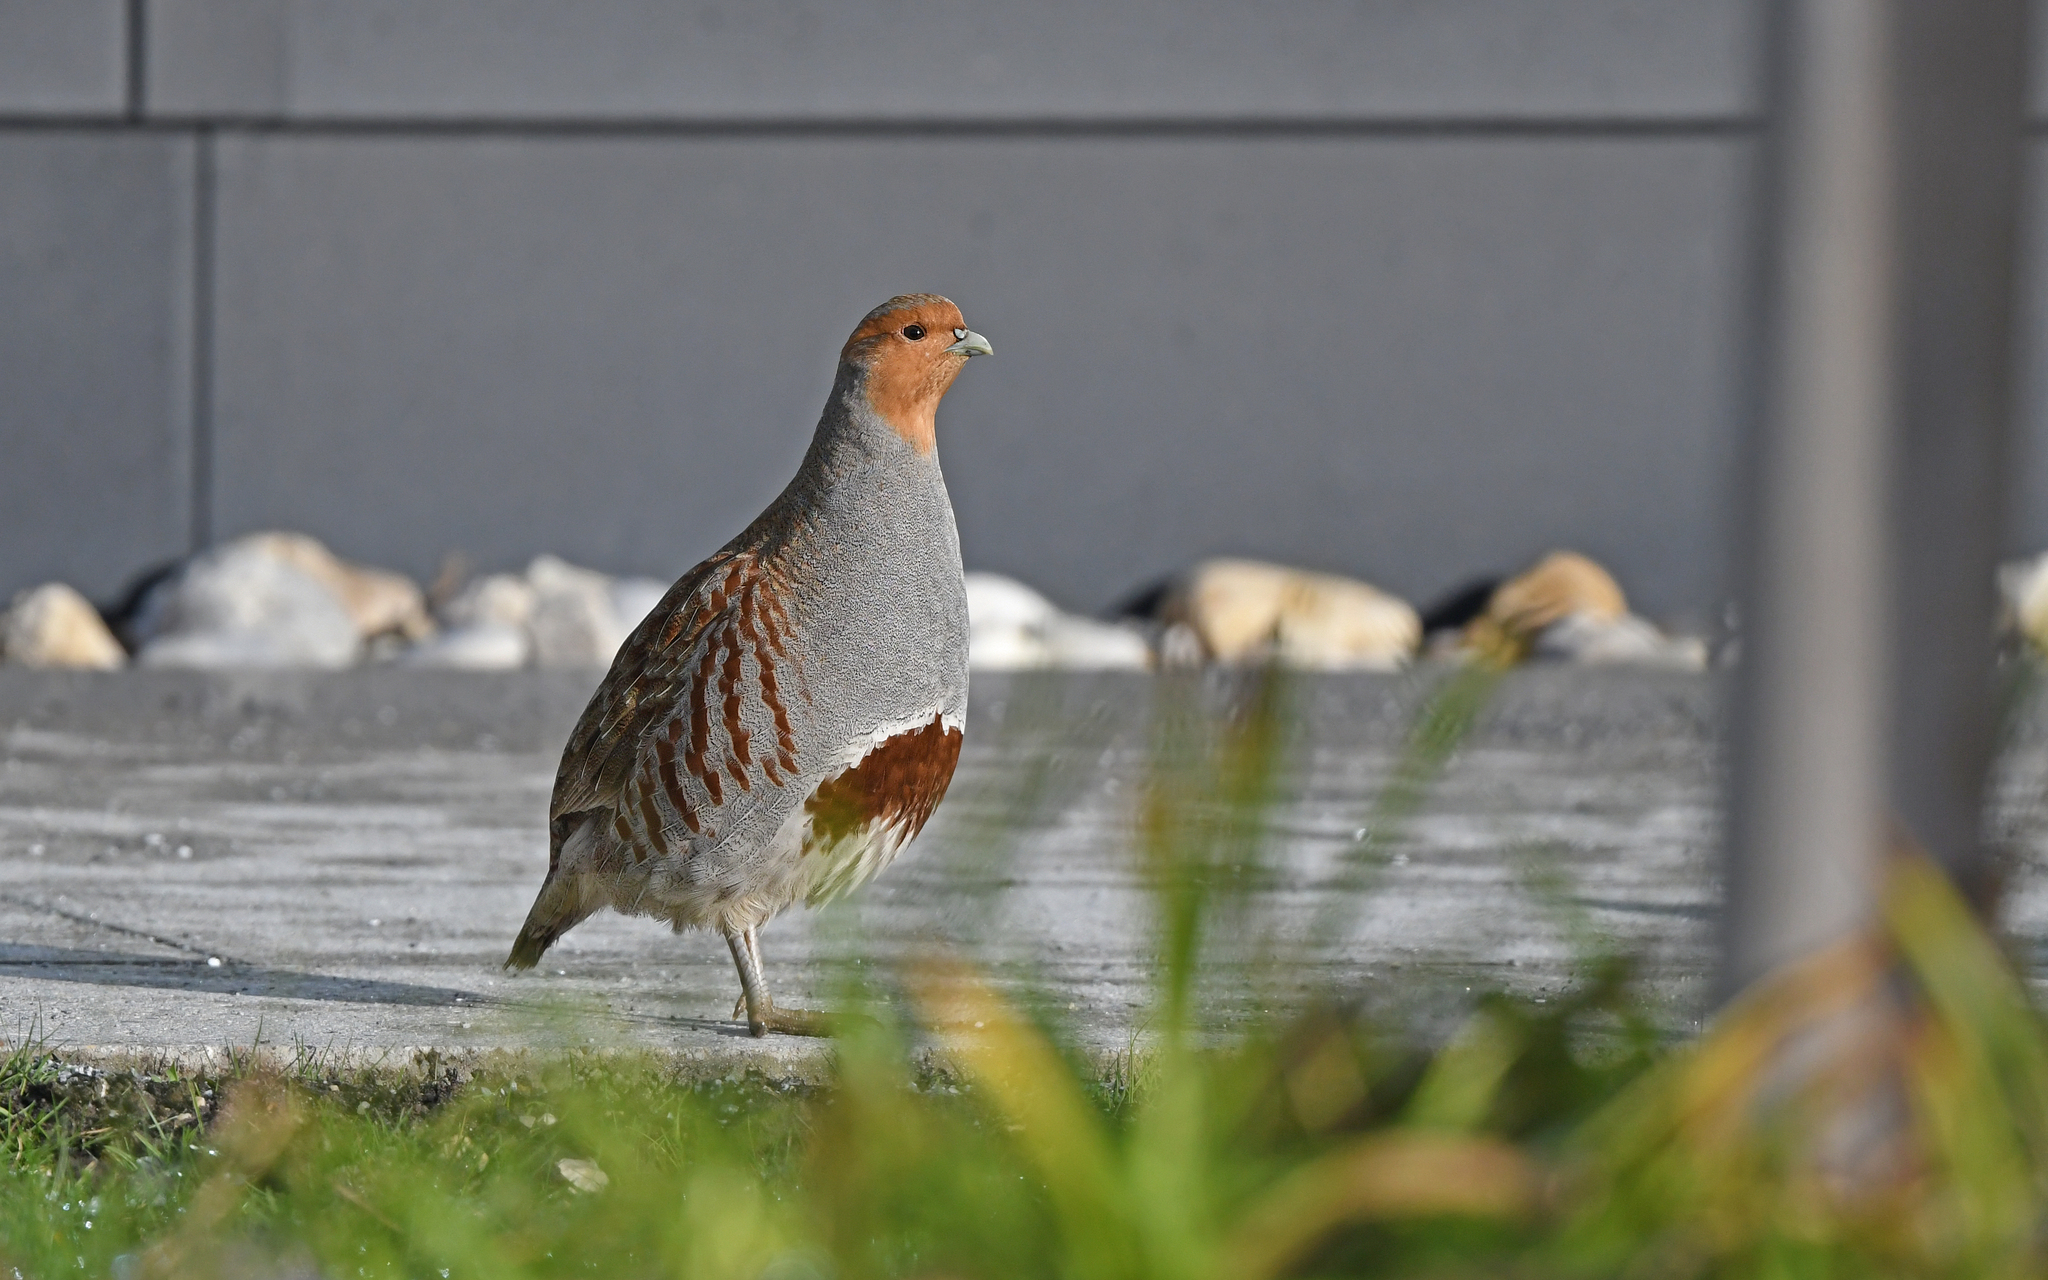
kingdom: Animalia
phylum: Chordata
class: Aves
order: Galliformes
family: Phasianidae
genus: Perdix
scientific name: Perdix perdix
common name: Grey partridge
